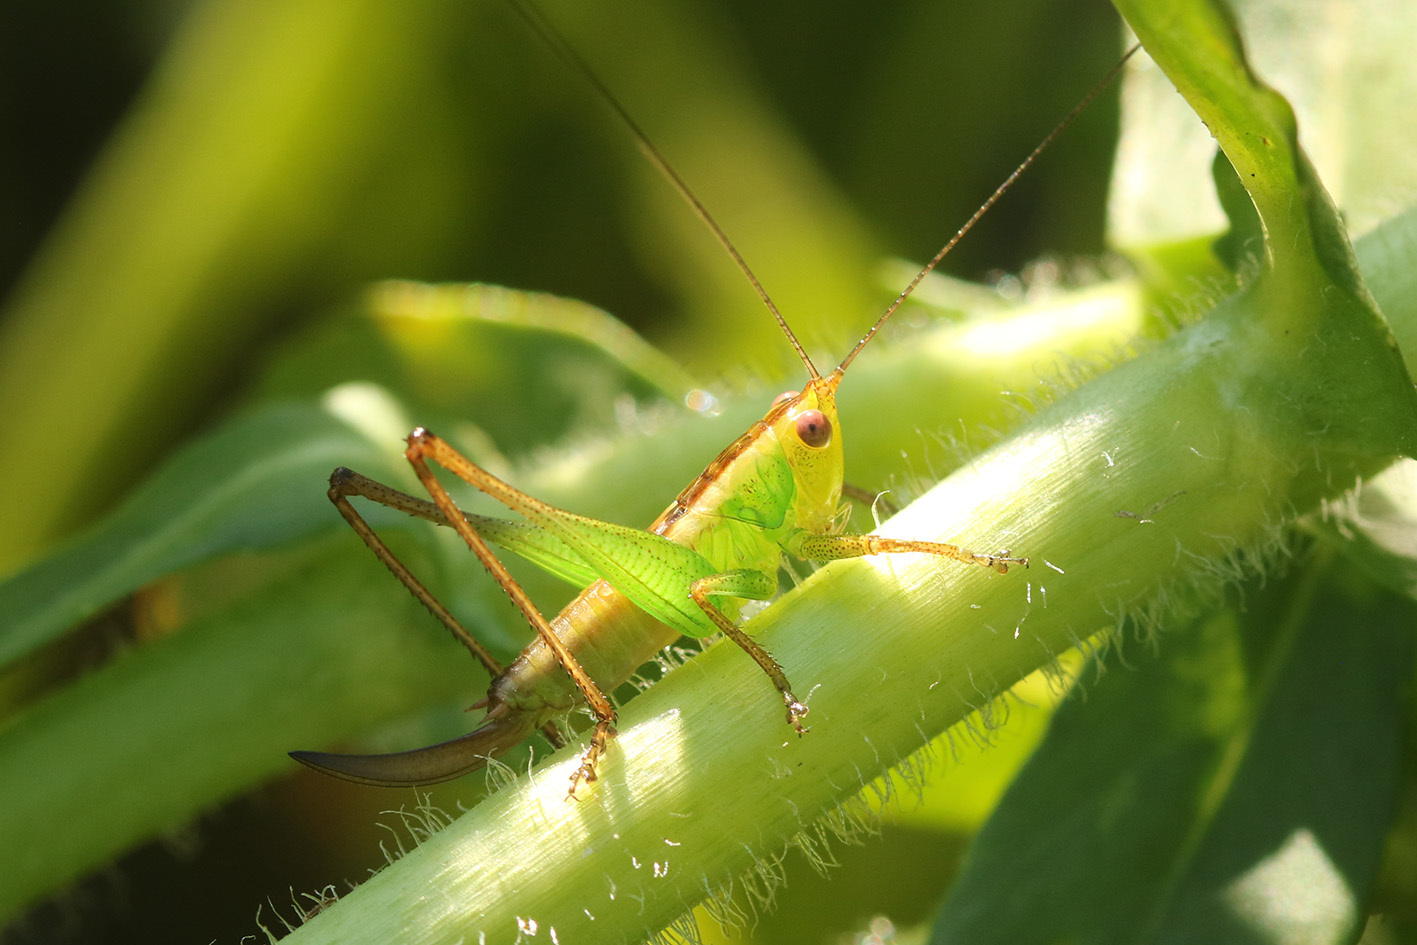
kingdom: Animalia
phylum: Arthropoda
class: Insecta
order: Orthoptera
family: Tettigoniidae
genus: Conocephalus
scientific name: Conocephalus cinnamonifrons
